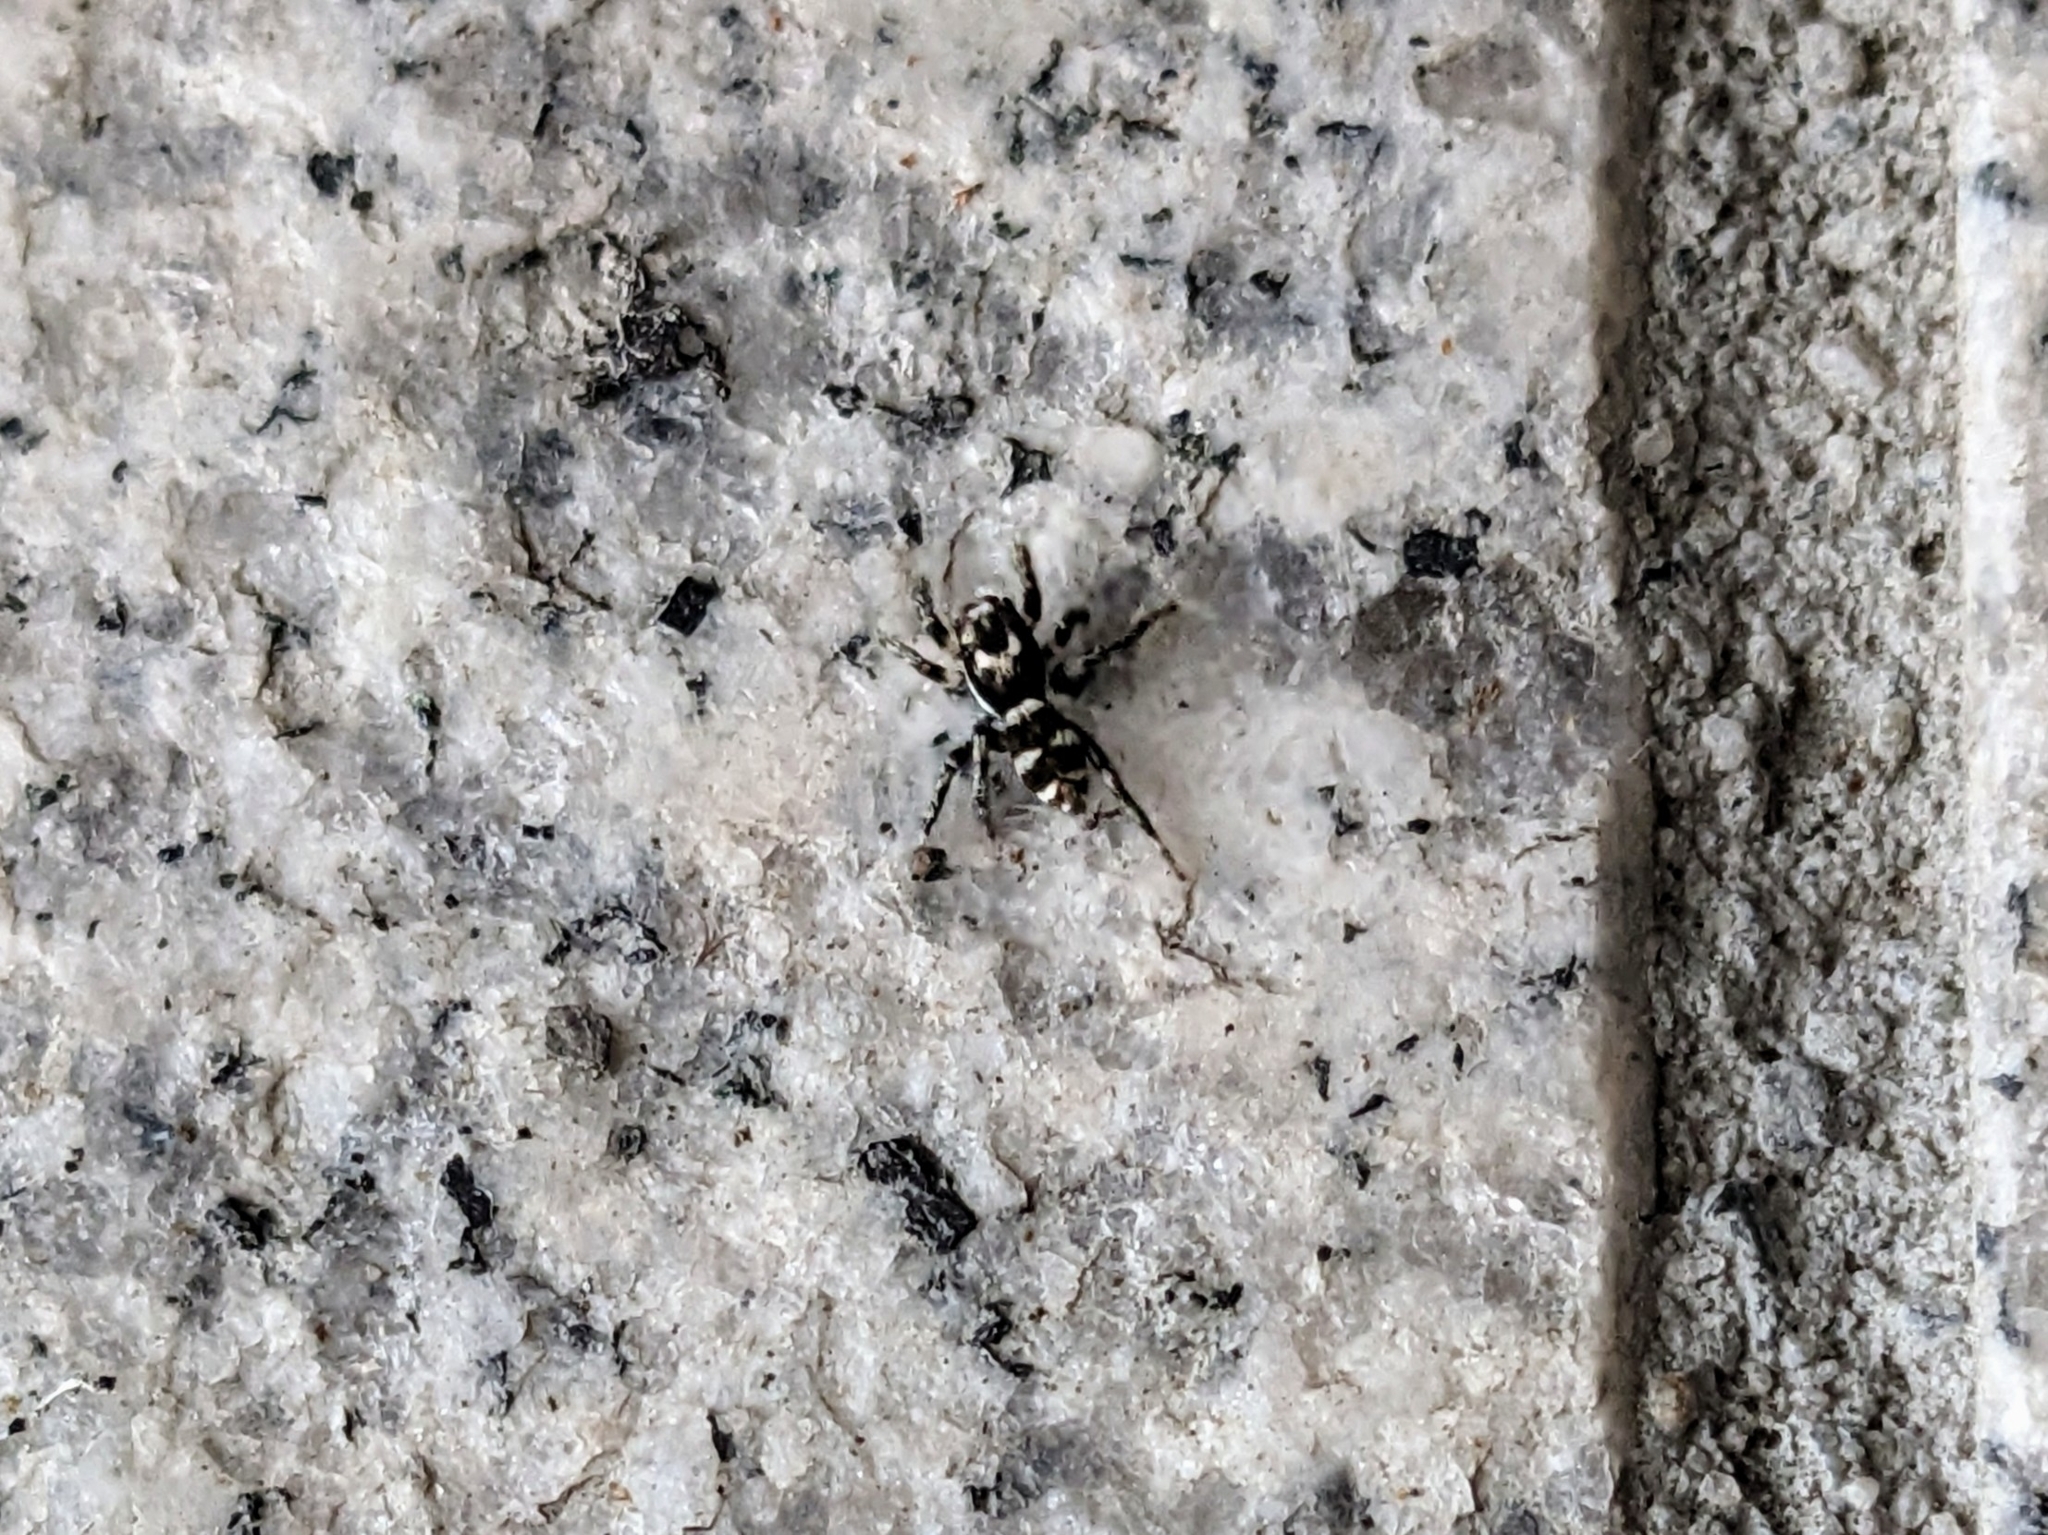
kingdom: Animalia
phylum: Arthropoda
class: Arachnida
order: Araneae
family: Salticidae
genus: Salticus
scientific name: Salticus scenicus
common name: Zebra jumper
